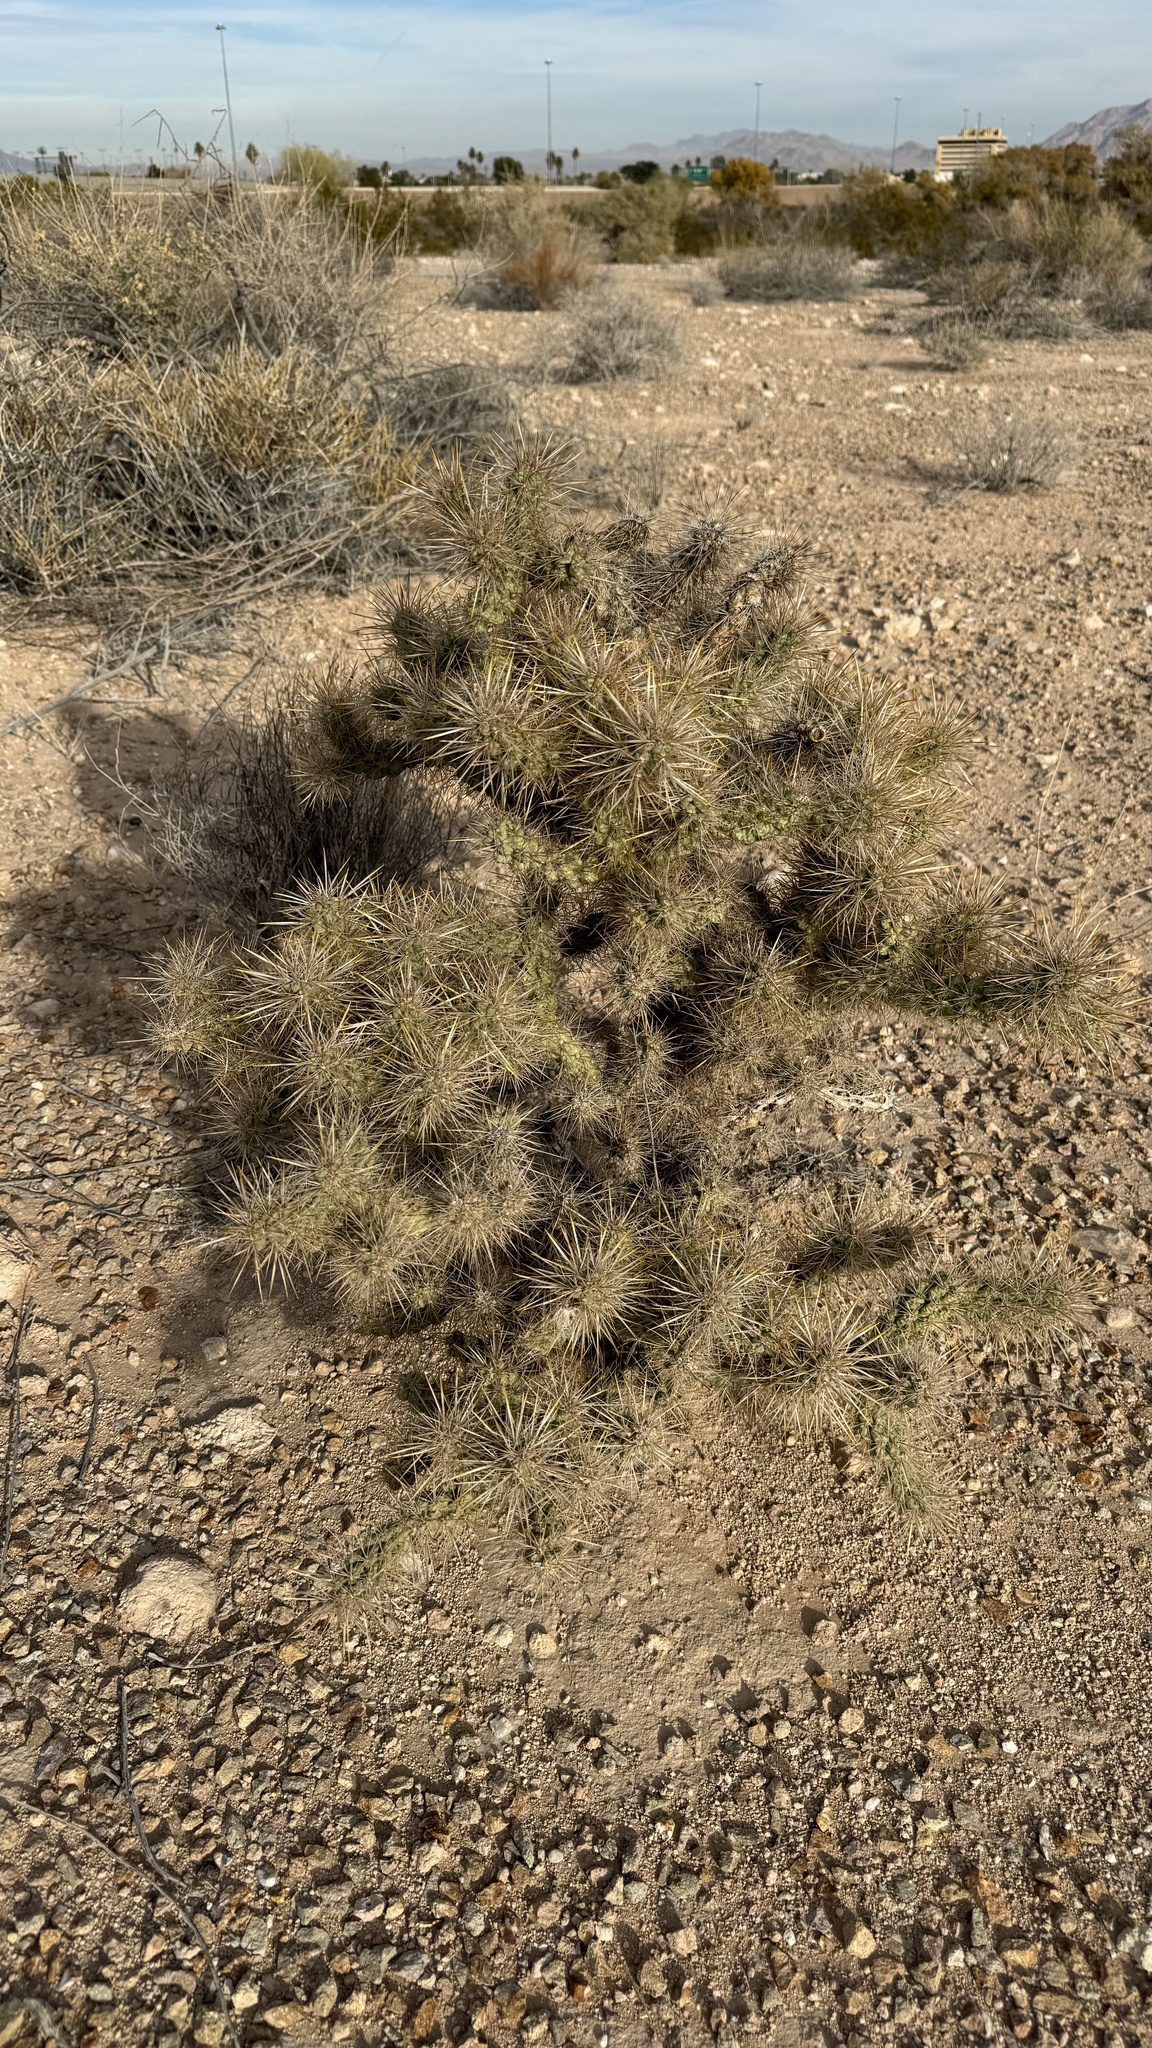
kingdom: Plantae
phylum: Tracheophyta
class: Magnoliopsida
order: Caryophyllales
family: Cactaceae
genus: Cylindropuntia
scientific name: Cylindropuntia echinocarpa
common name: Ground cholla
